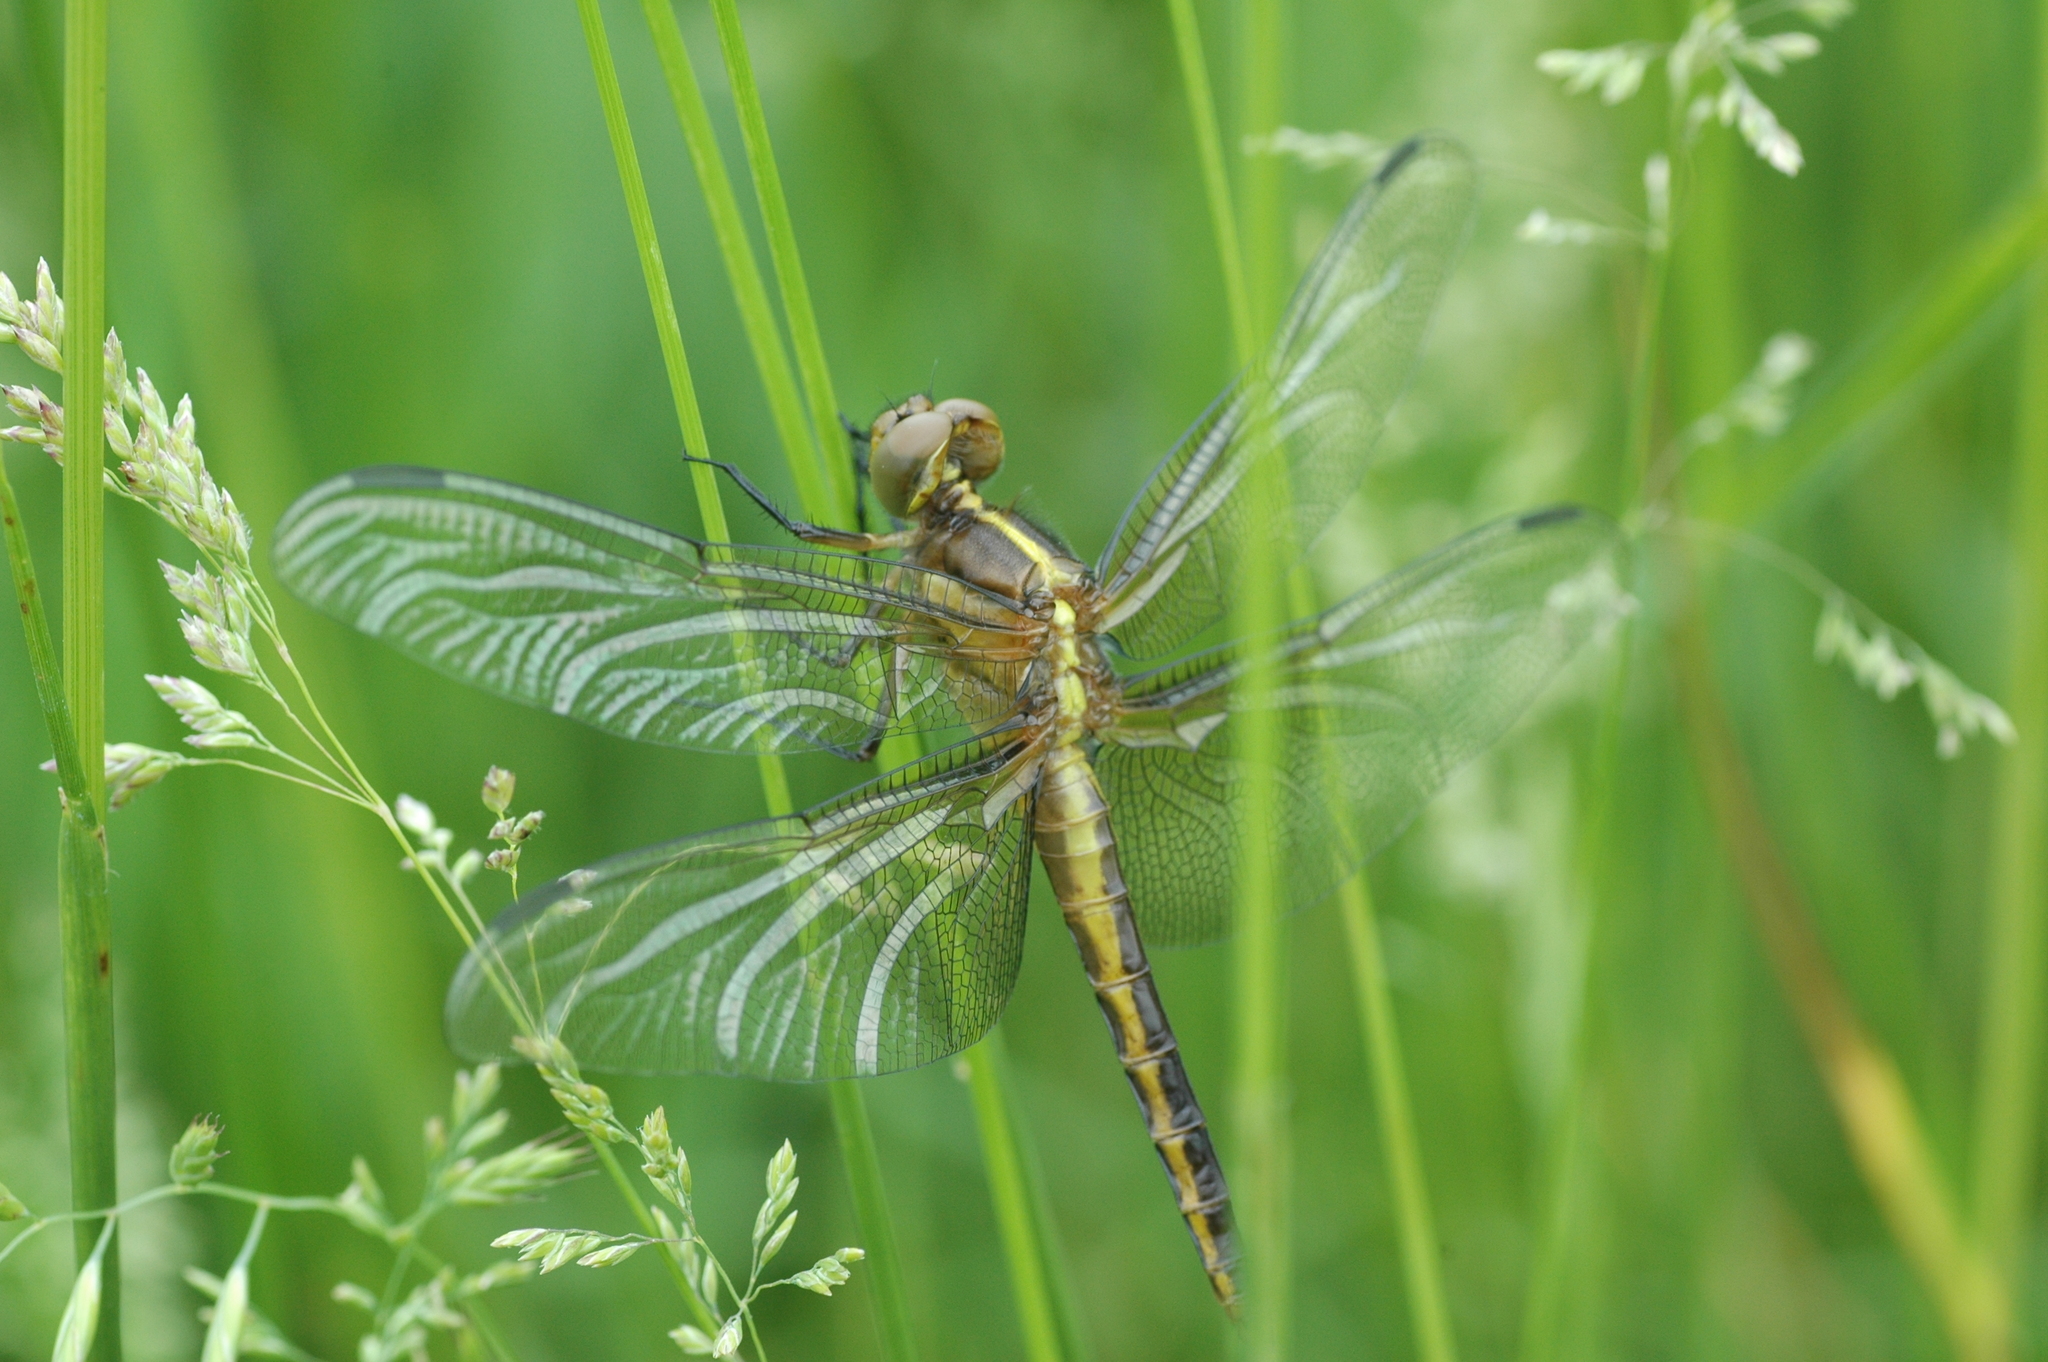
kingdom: Animalia
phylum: Arthropoda
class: Insecta
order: Odonata
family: Libellulidae
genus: Libellula
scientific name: Libellula luctuosa
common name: Widow skimmer
